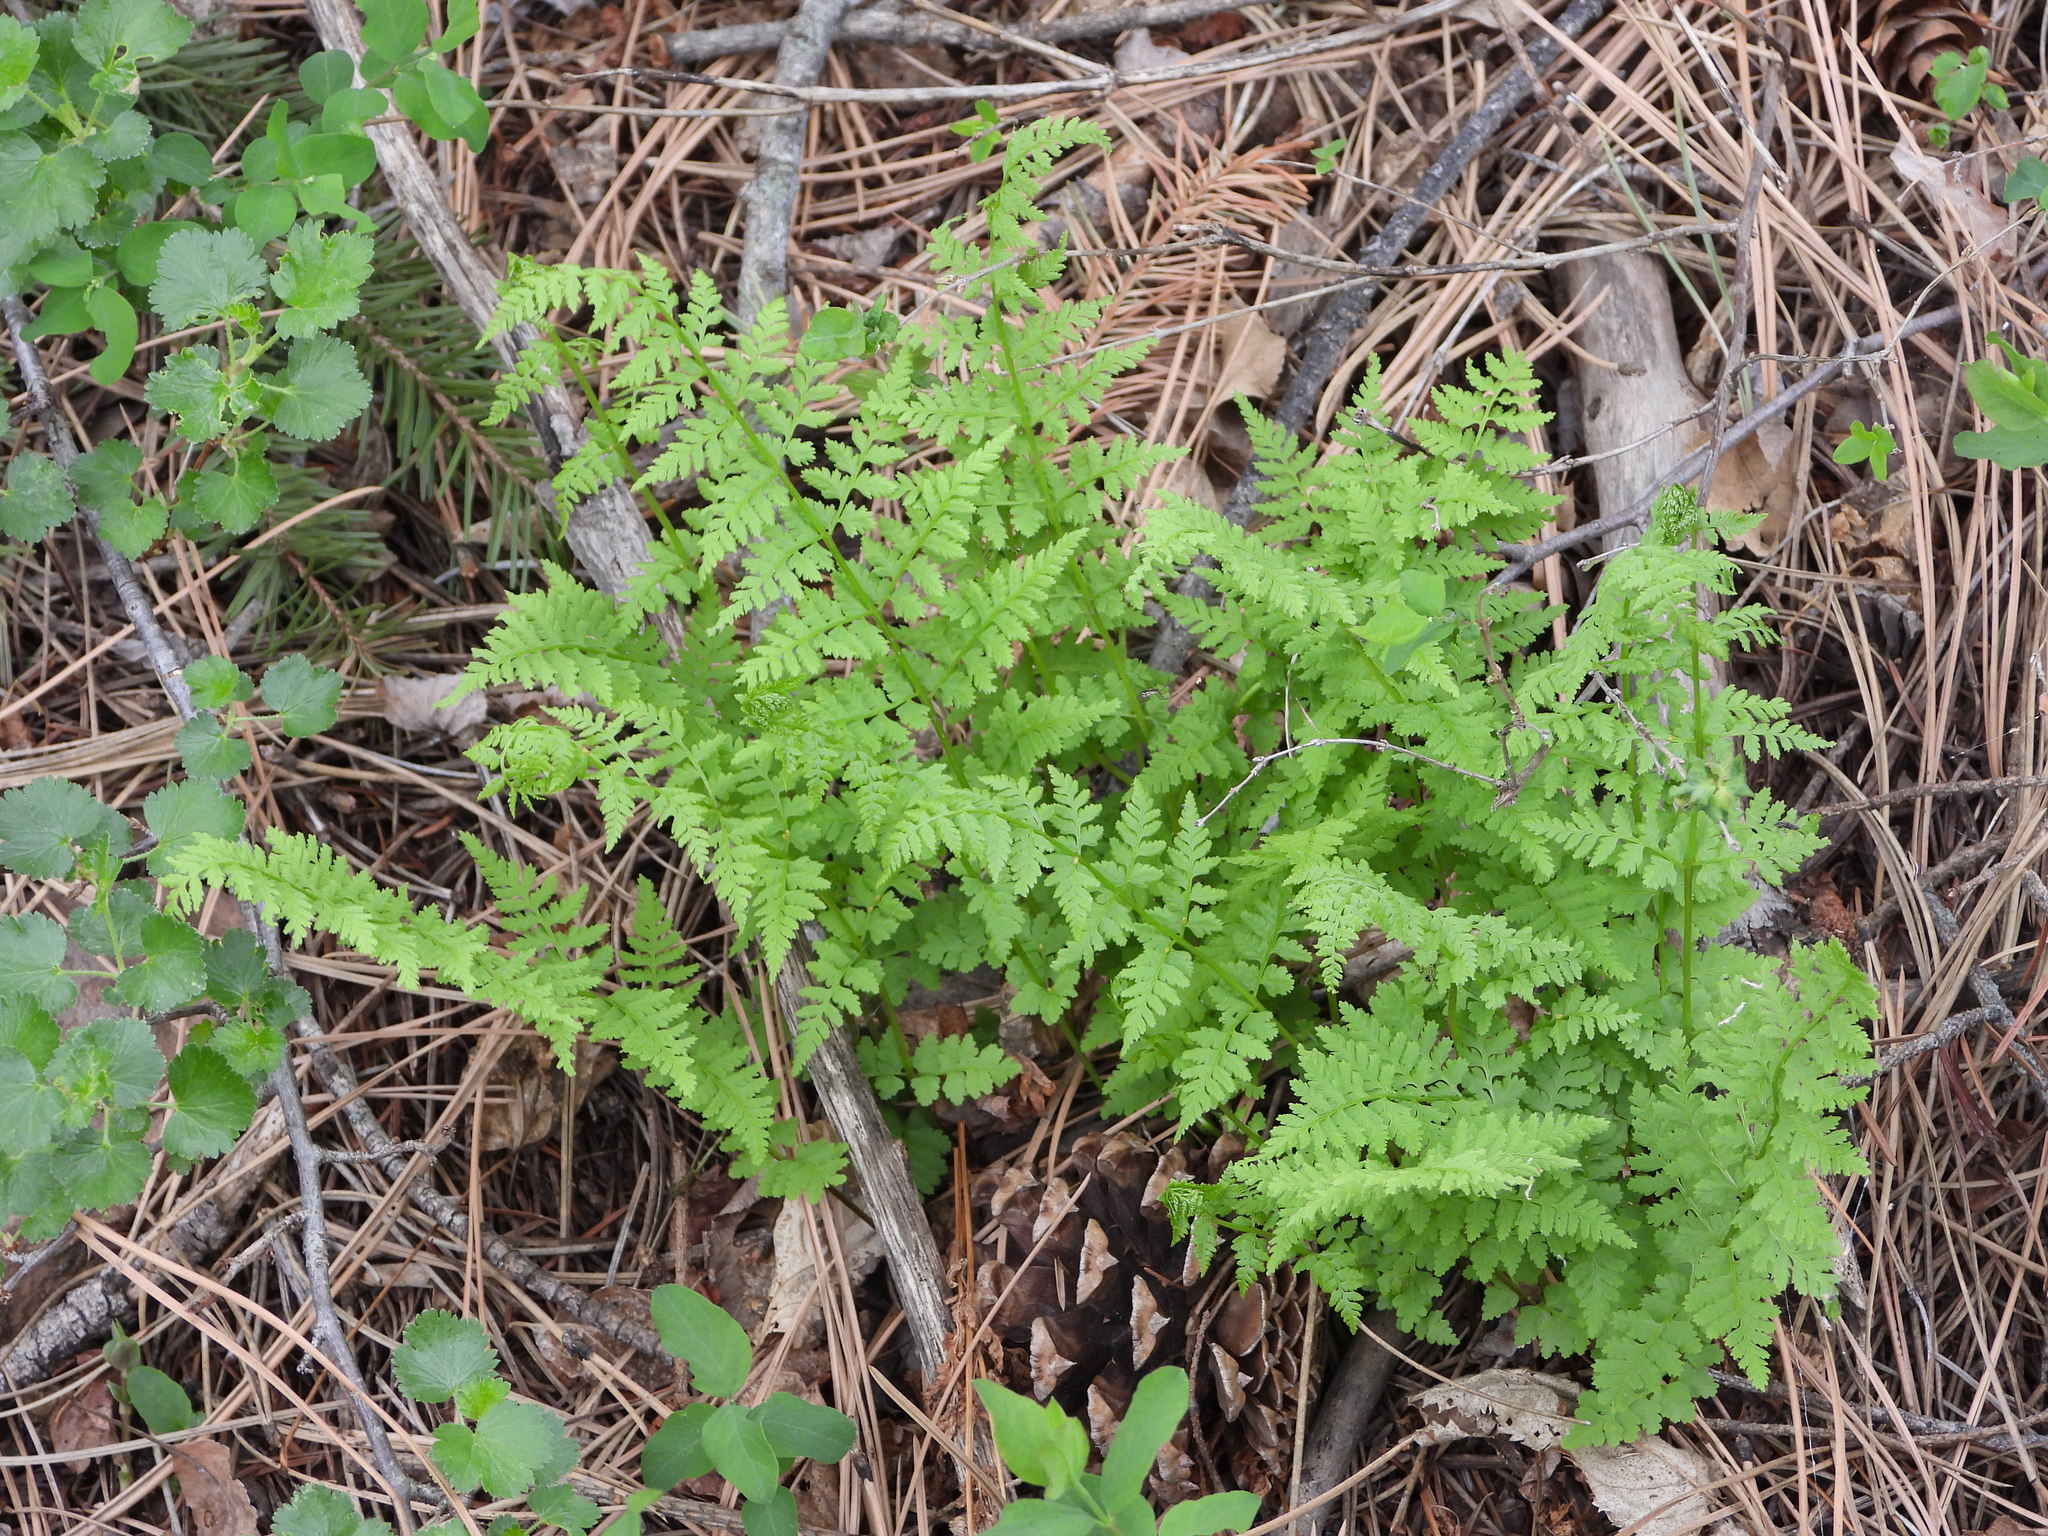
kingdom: Plantae
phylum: Tracheophyta
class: Polypodiopsida
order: Polypodiales
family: Cystopteridaceae
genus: Cystopteris
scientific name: Cystopteris fragilis
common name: Brittle bladder fern
